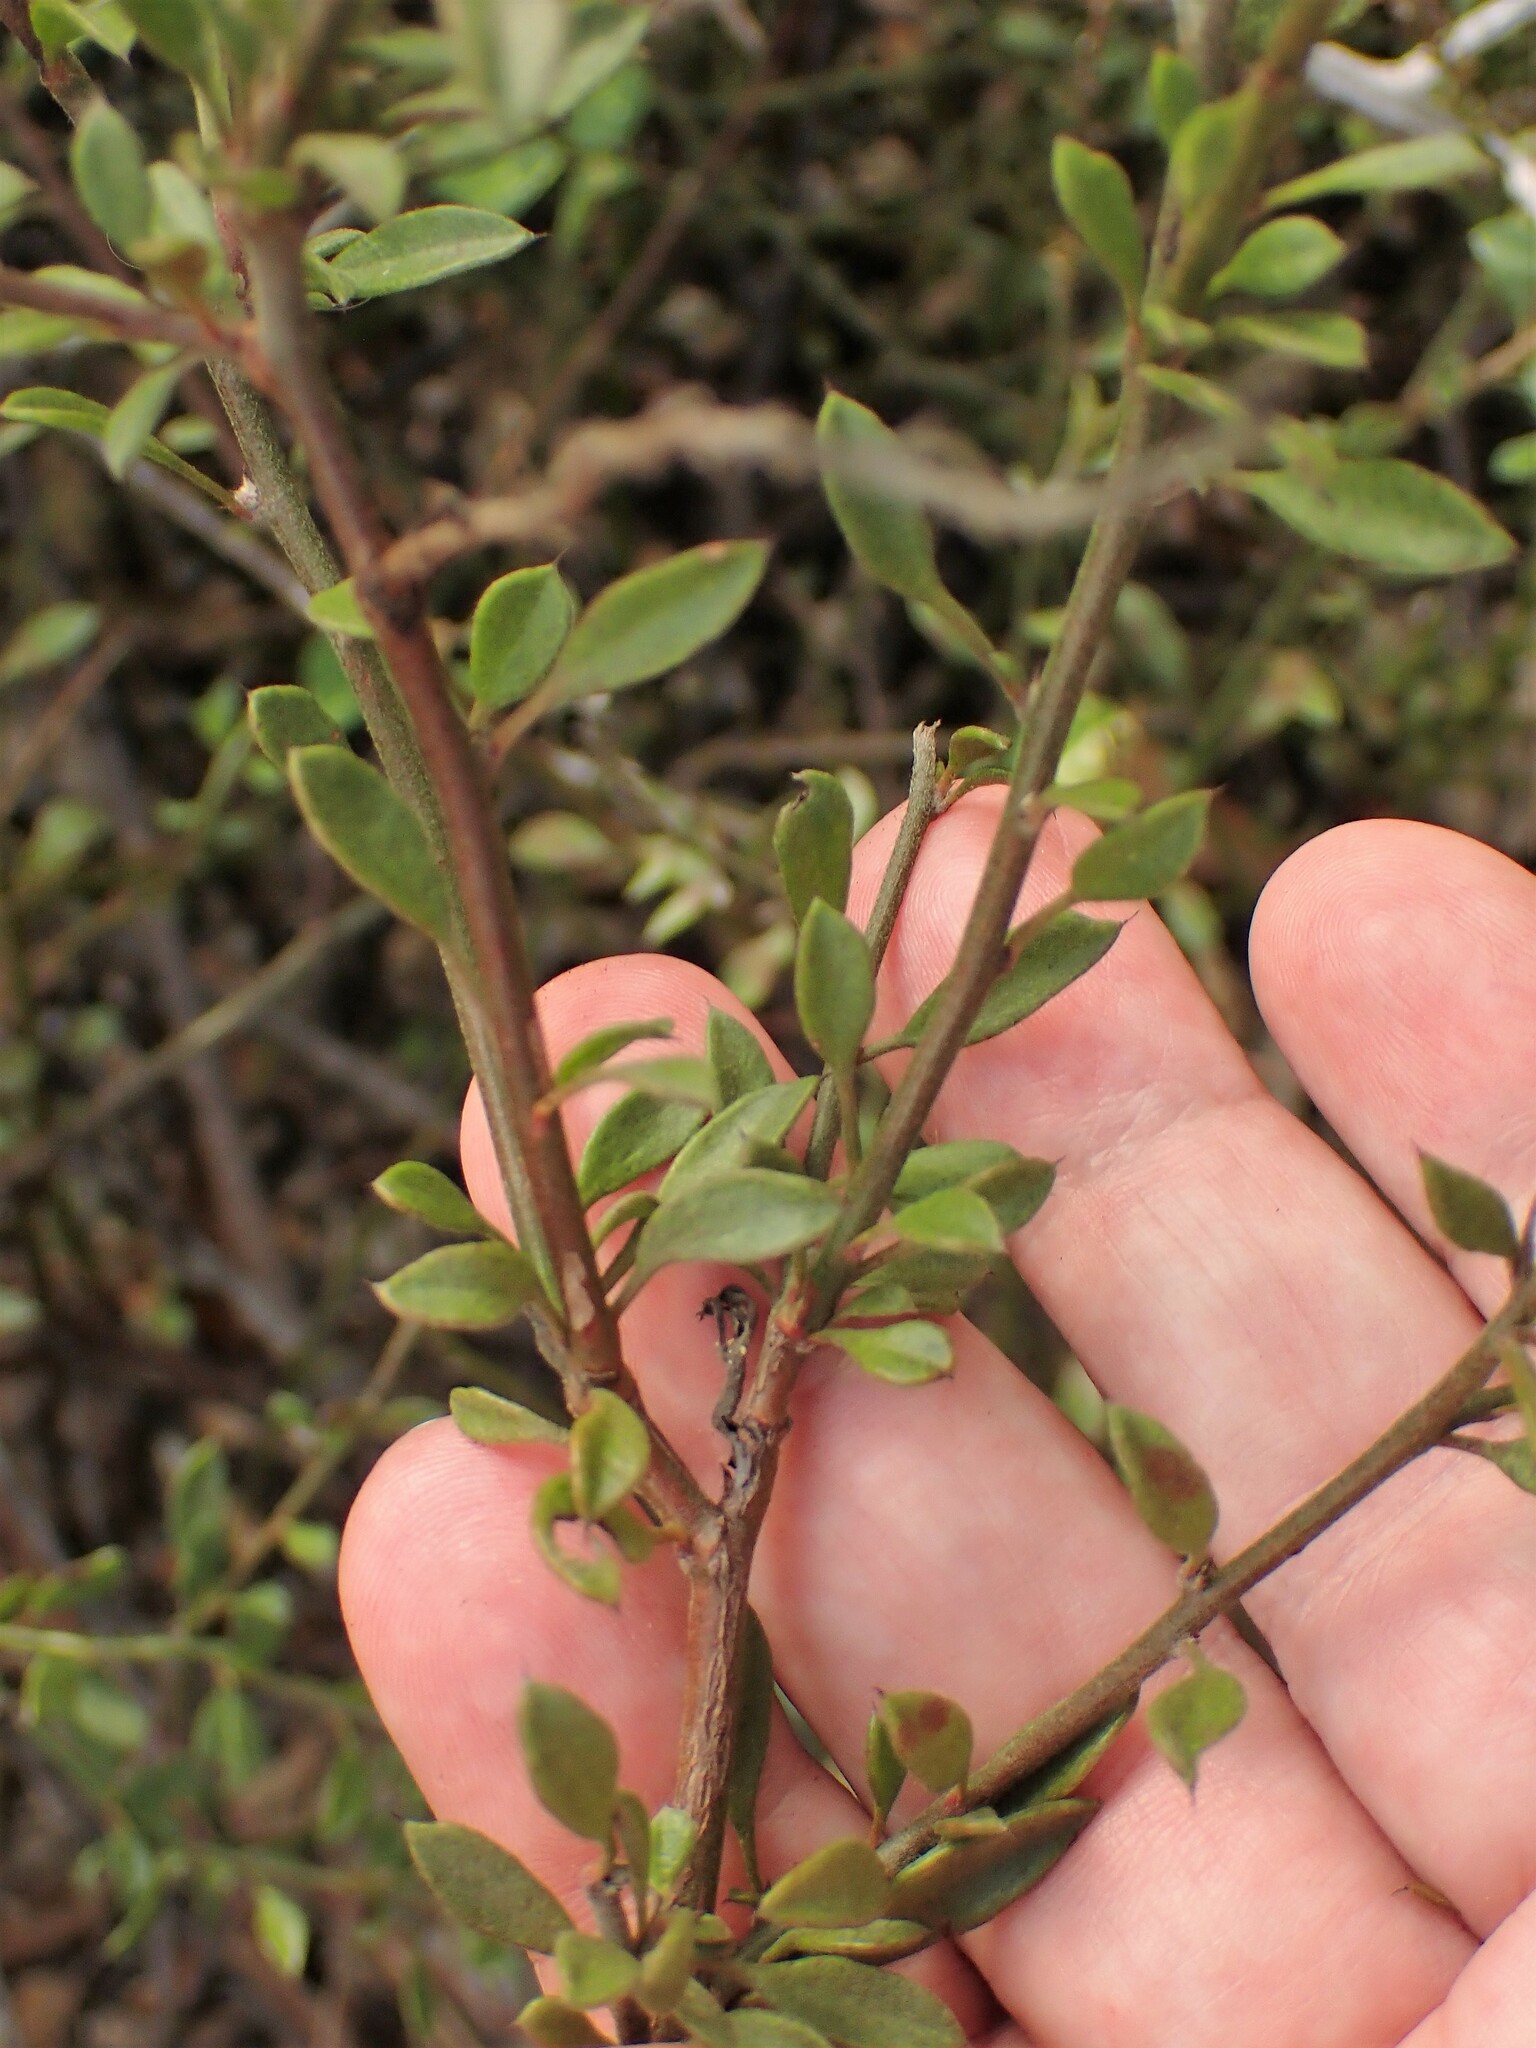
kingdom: Plantae
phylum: Tracheophyta
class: Magnoliopsida
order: Zygophyllales
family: Krameriaceae
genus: Krameria
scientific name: Krameria ixine
